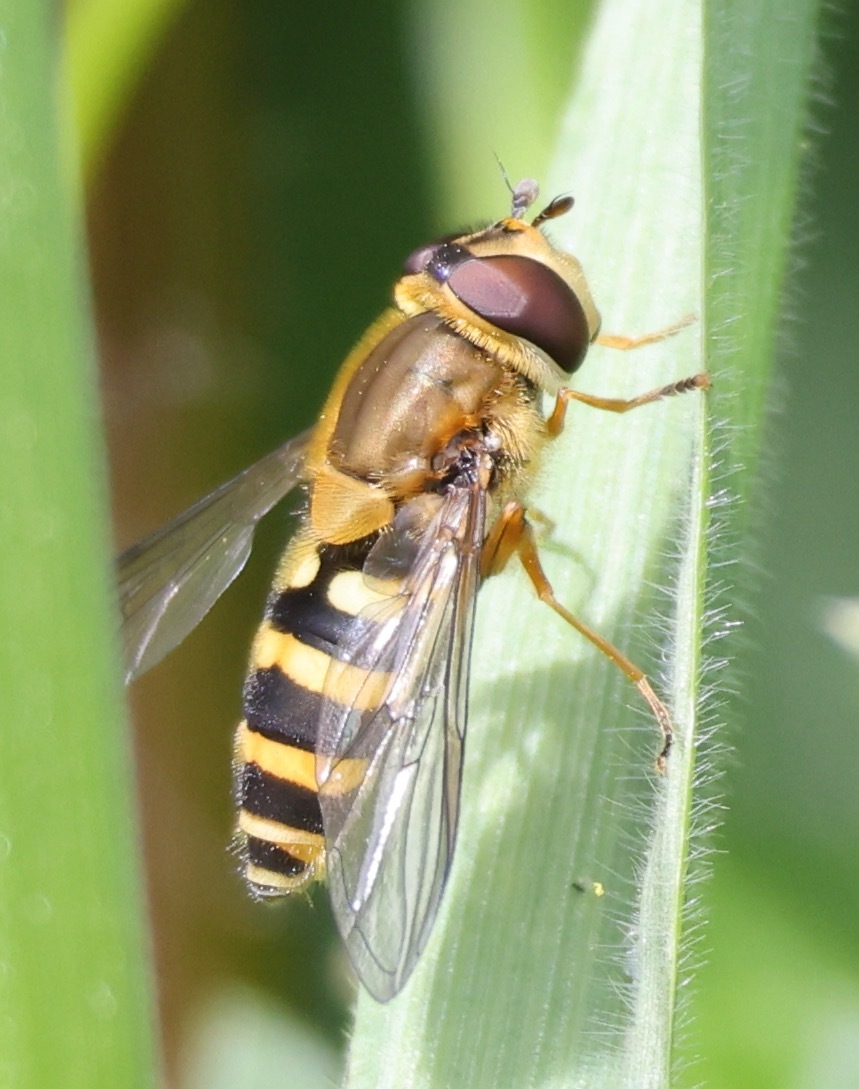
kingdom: Animalia
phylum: Arthropoda
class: Insecta
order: Diptera
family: Syrphidae
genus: Syrphus
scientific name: Syrphus ribesii
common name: Common flower fly
